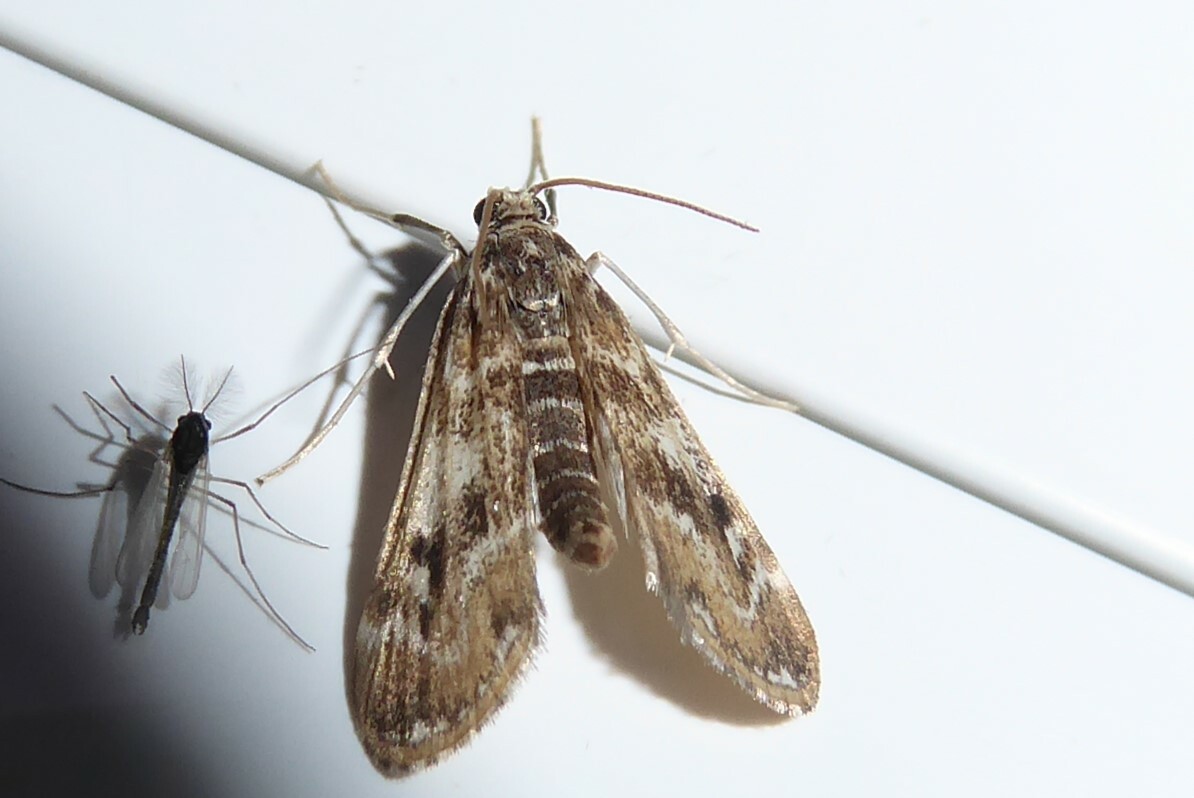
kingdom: Animalia
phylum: Arthropoda
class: Insecta
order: Lepidoptera
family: Crambidae
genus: Hygraula
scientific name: Hygraula nitens
